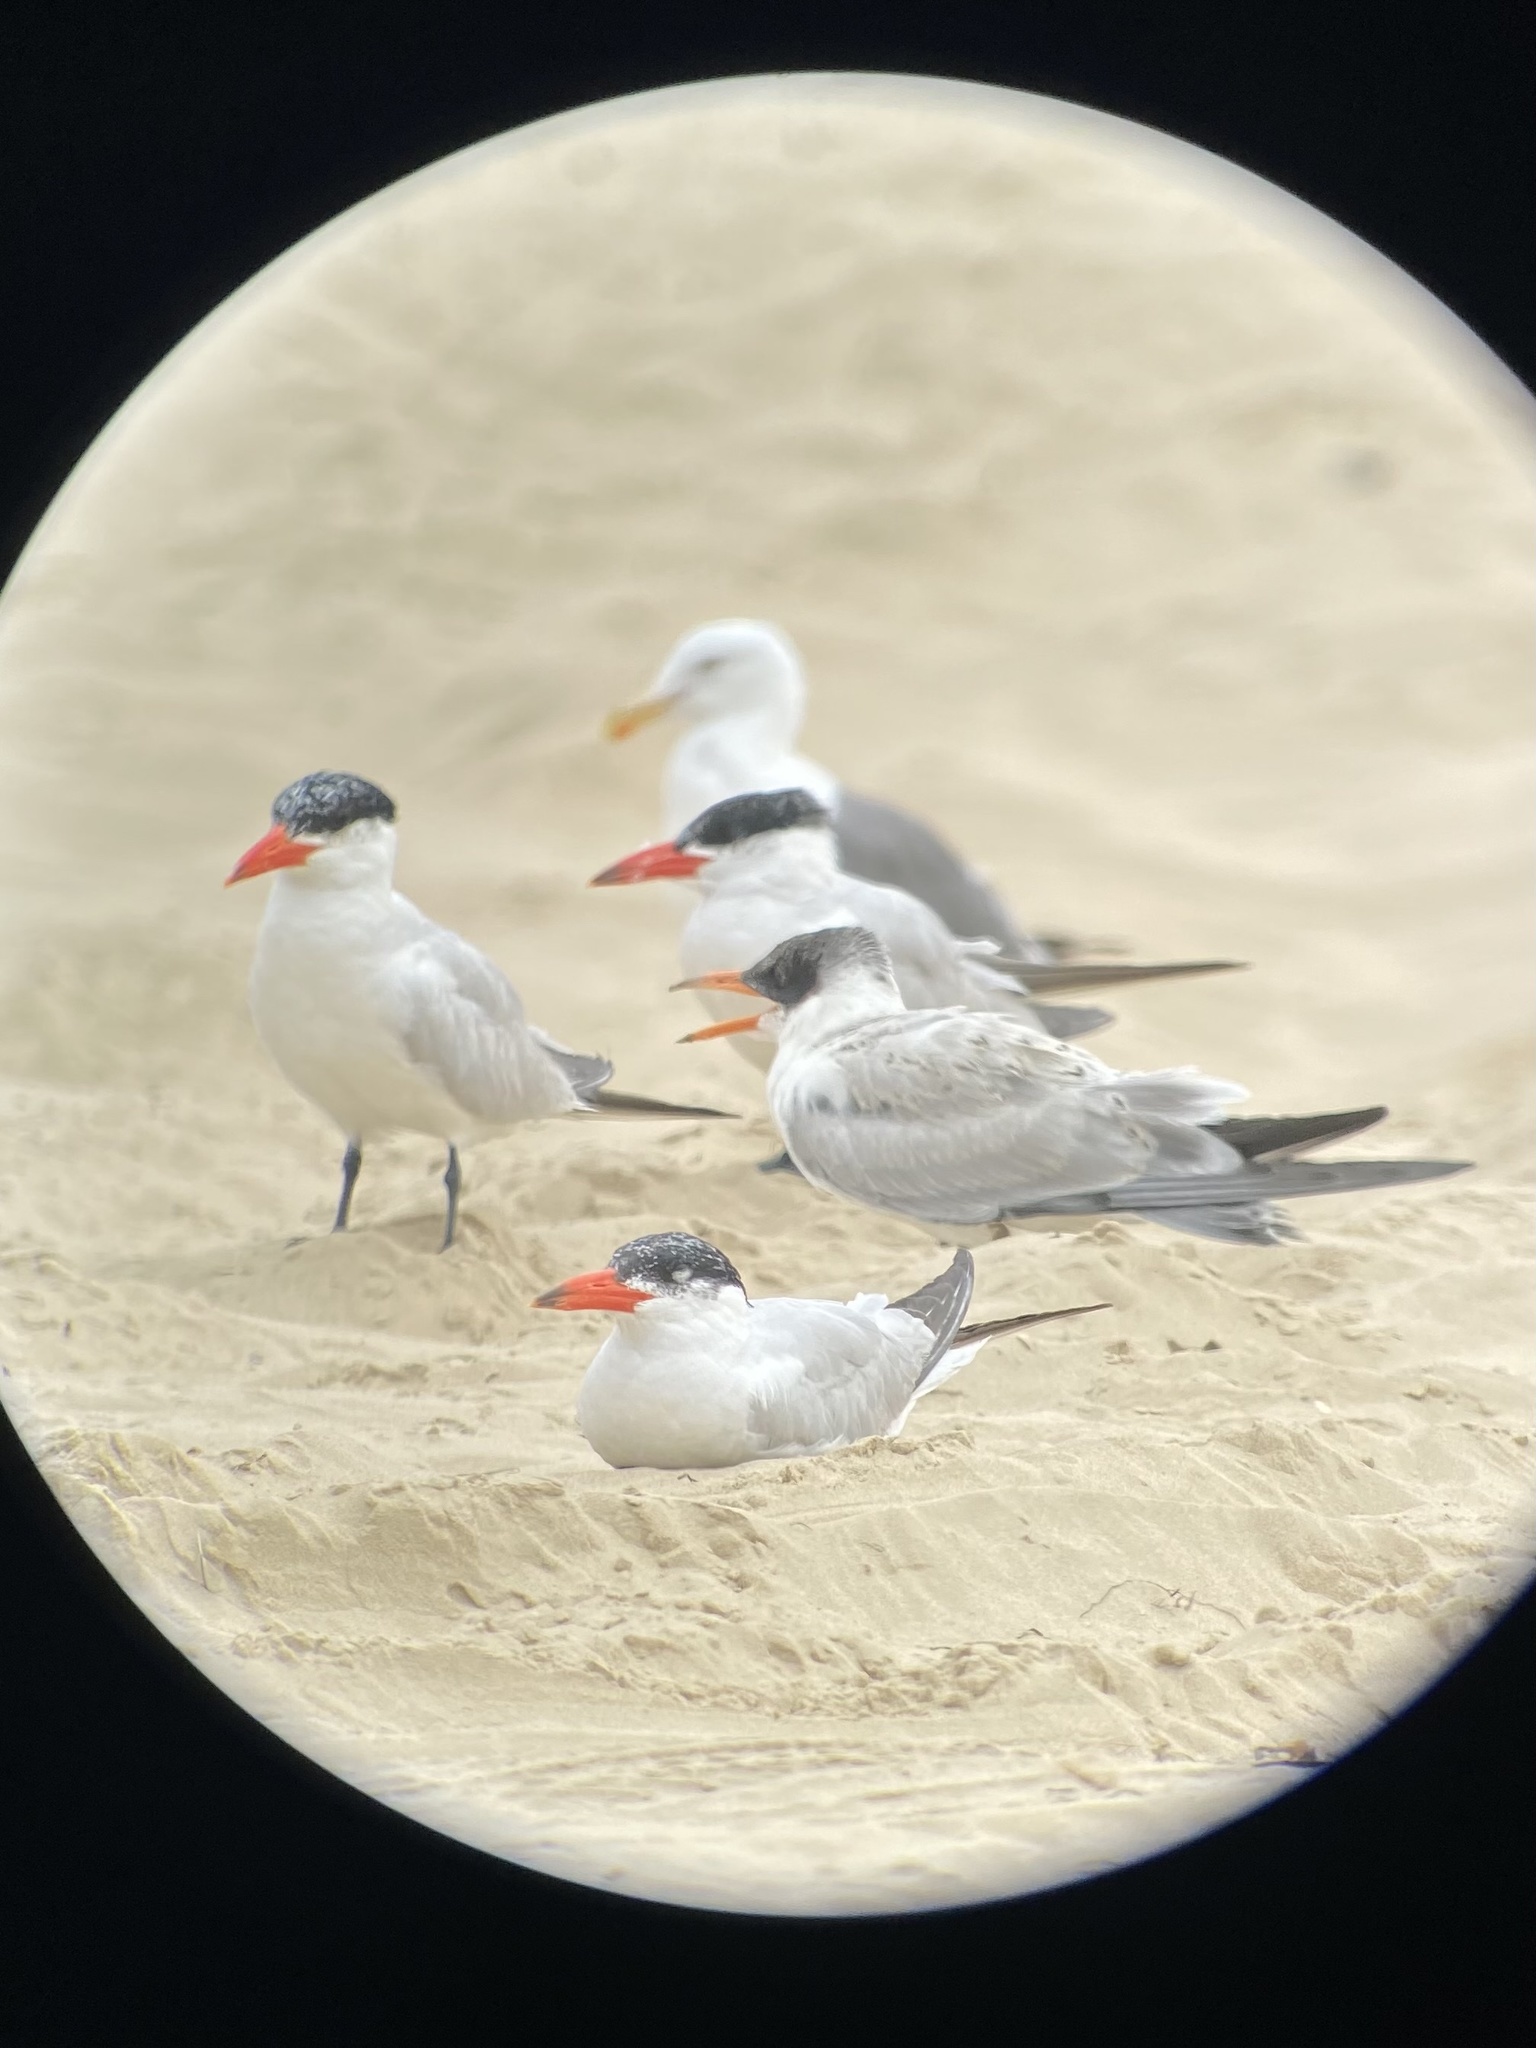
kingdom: Animalia
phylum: Chordata
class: Aves
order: Charadriiformes
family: Laridae
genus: Hydroprogne
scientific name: Hydroprogne caspia
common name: Caspian tern
